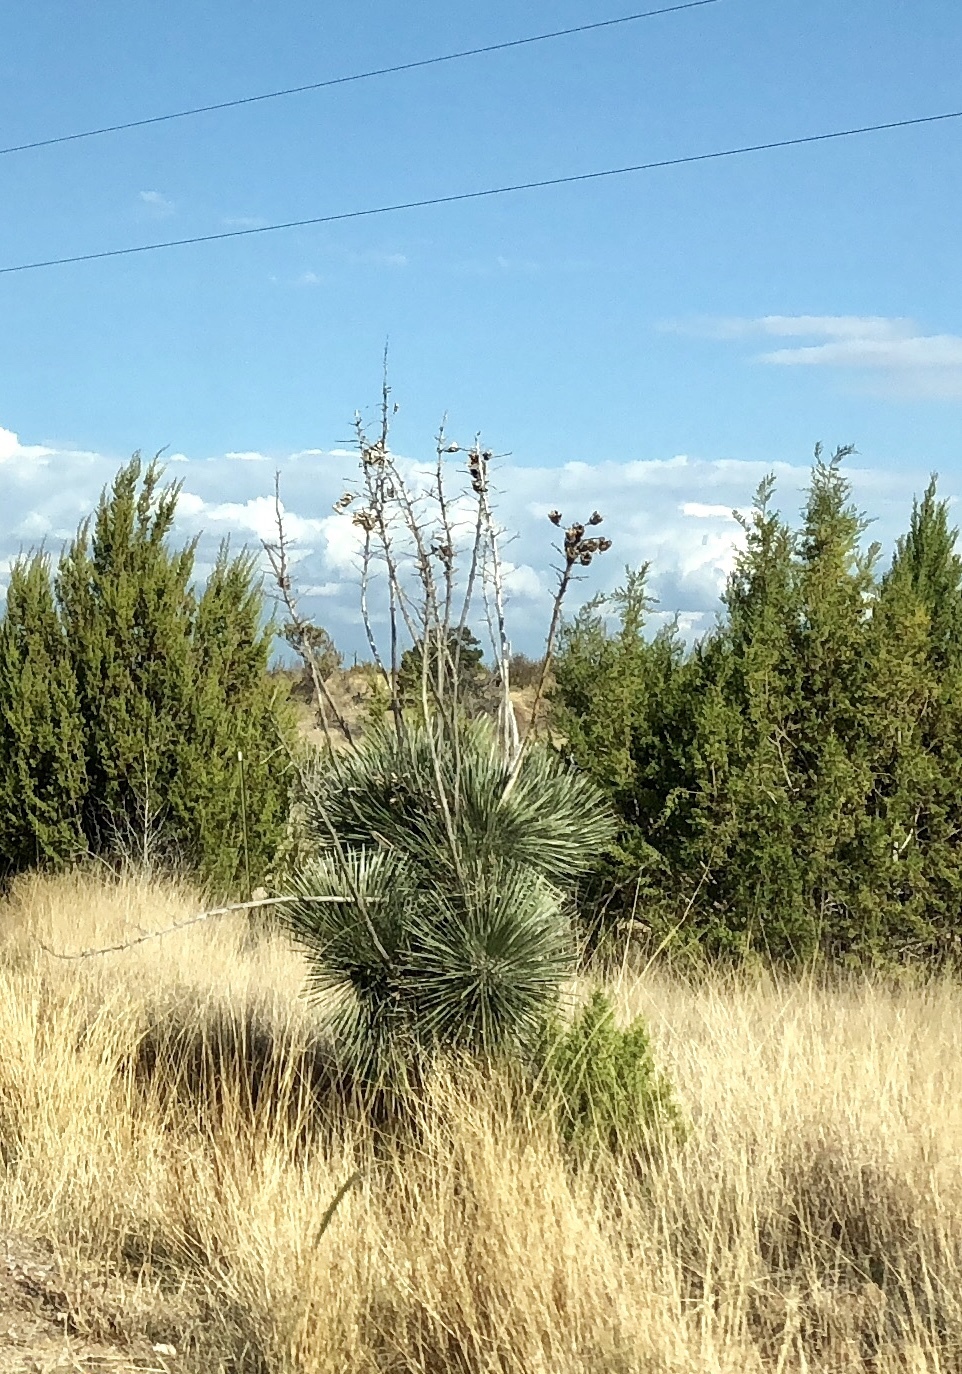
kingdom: Plantae
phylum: Tracheophyta
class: Liliopsida
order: Asparagales
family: Asparagaceae
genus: Yucca
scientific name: Yucca elata
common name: Palmella
